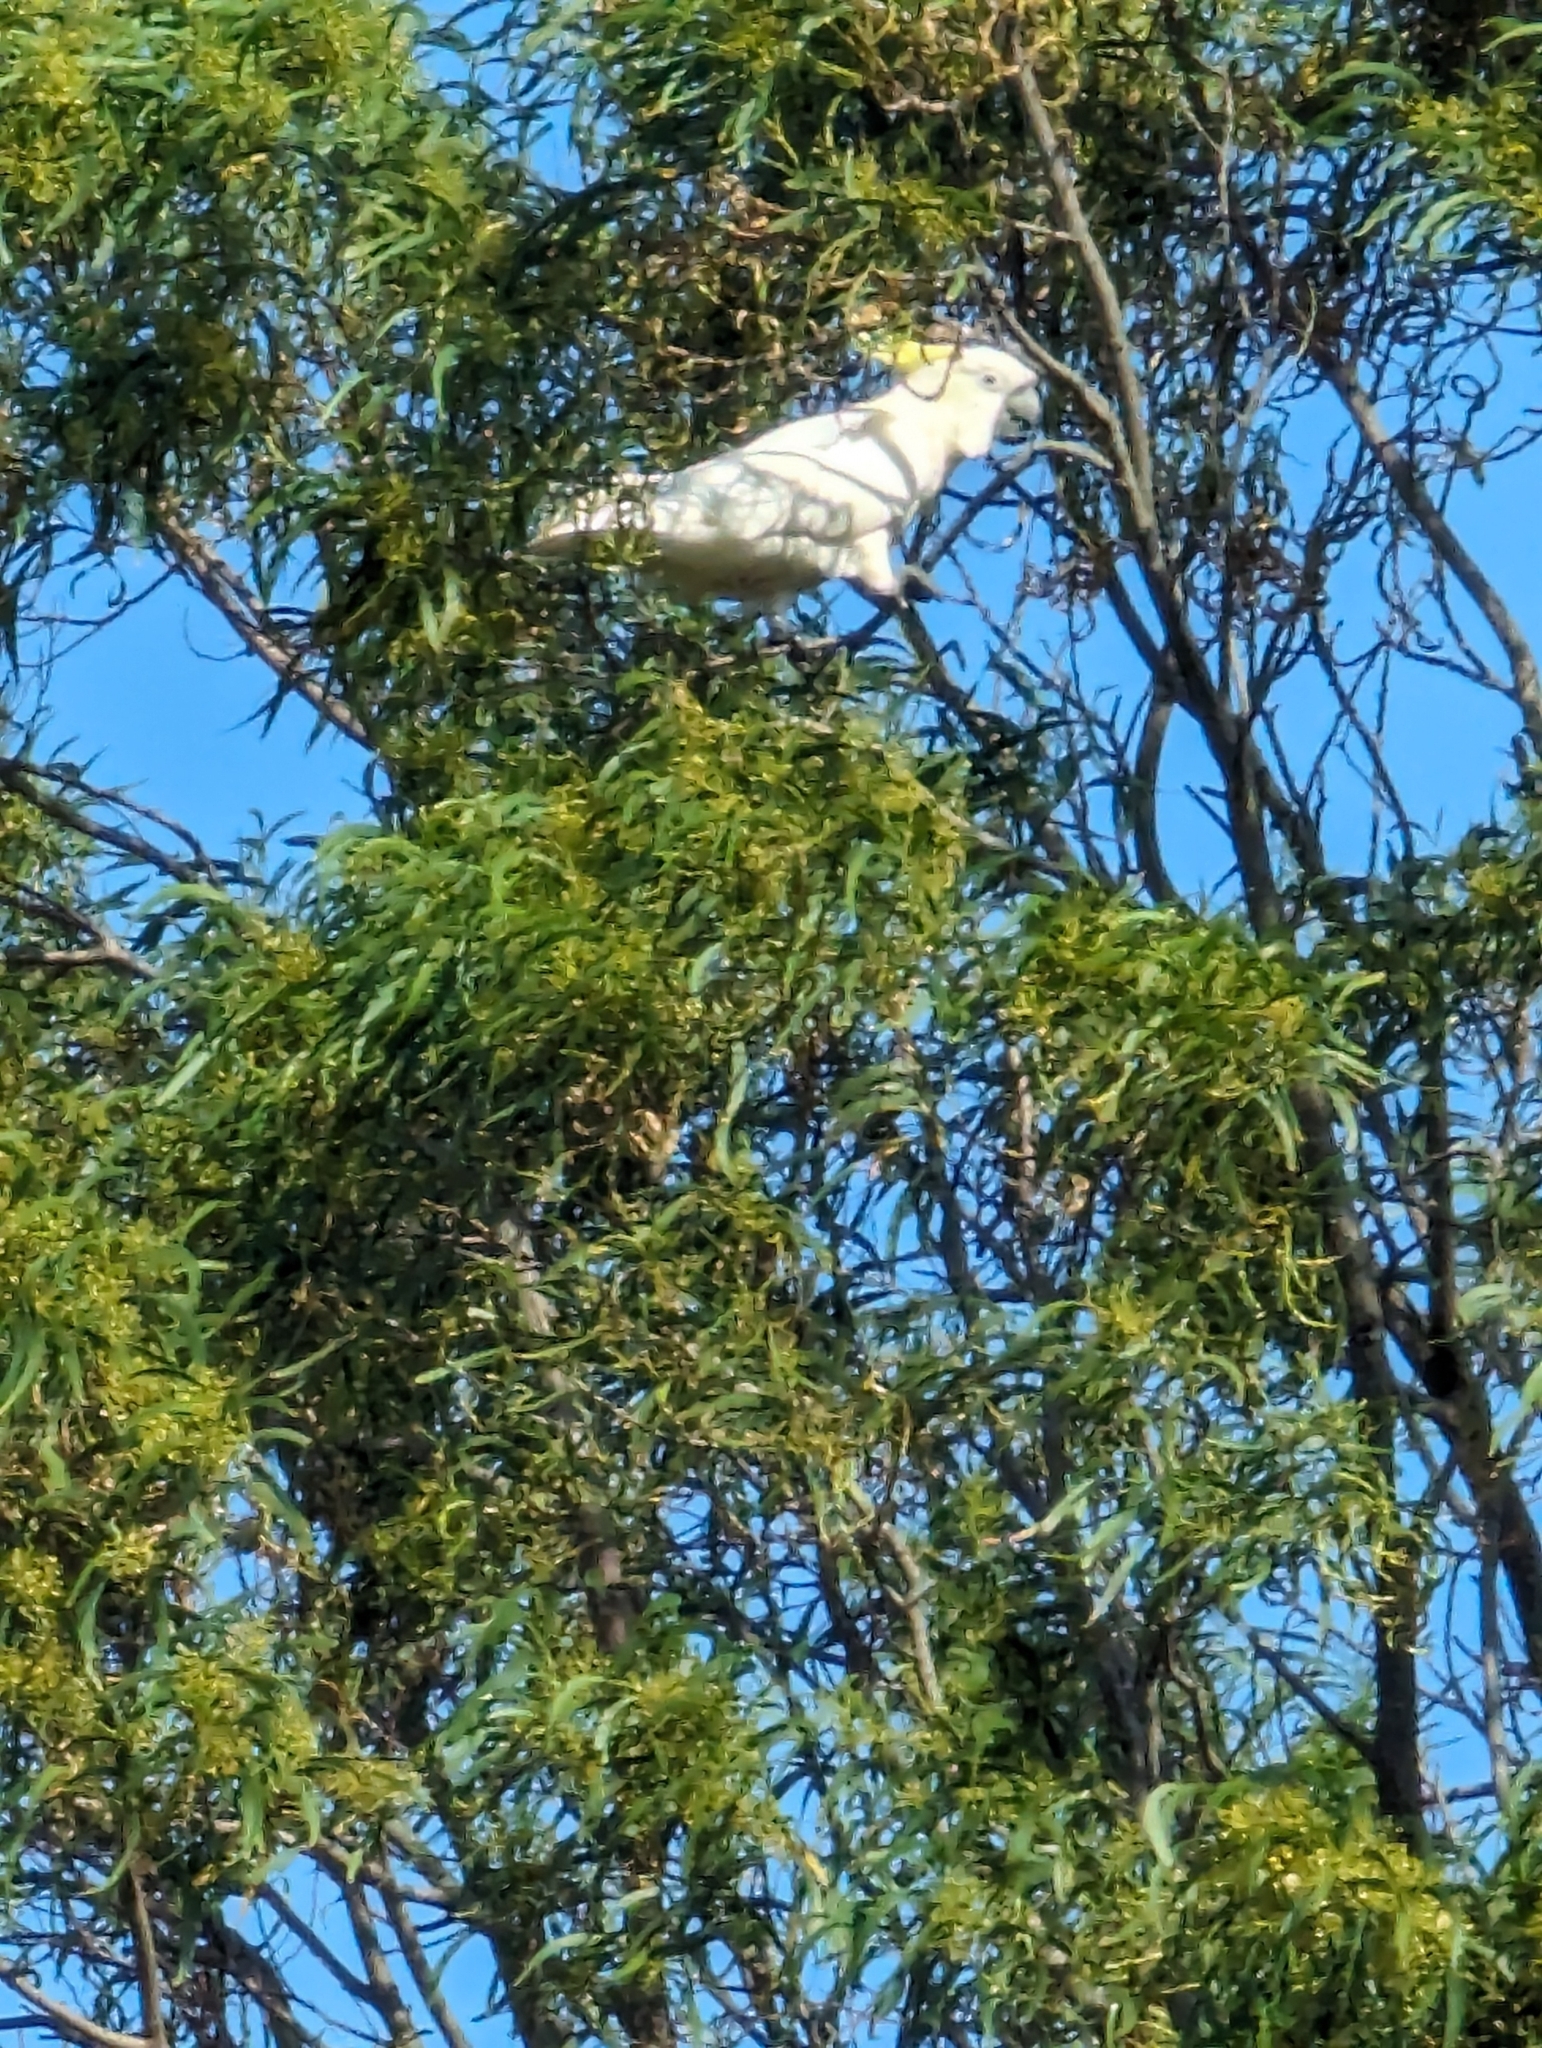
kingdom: Animalia
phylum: Chordata
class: Aves
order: Psittaciformes
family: Psittacidae
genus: Cacatua
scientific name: Cacatua galerita
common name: Sulphur-crested cockatoo
